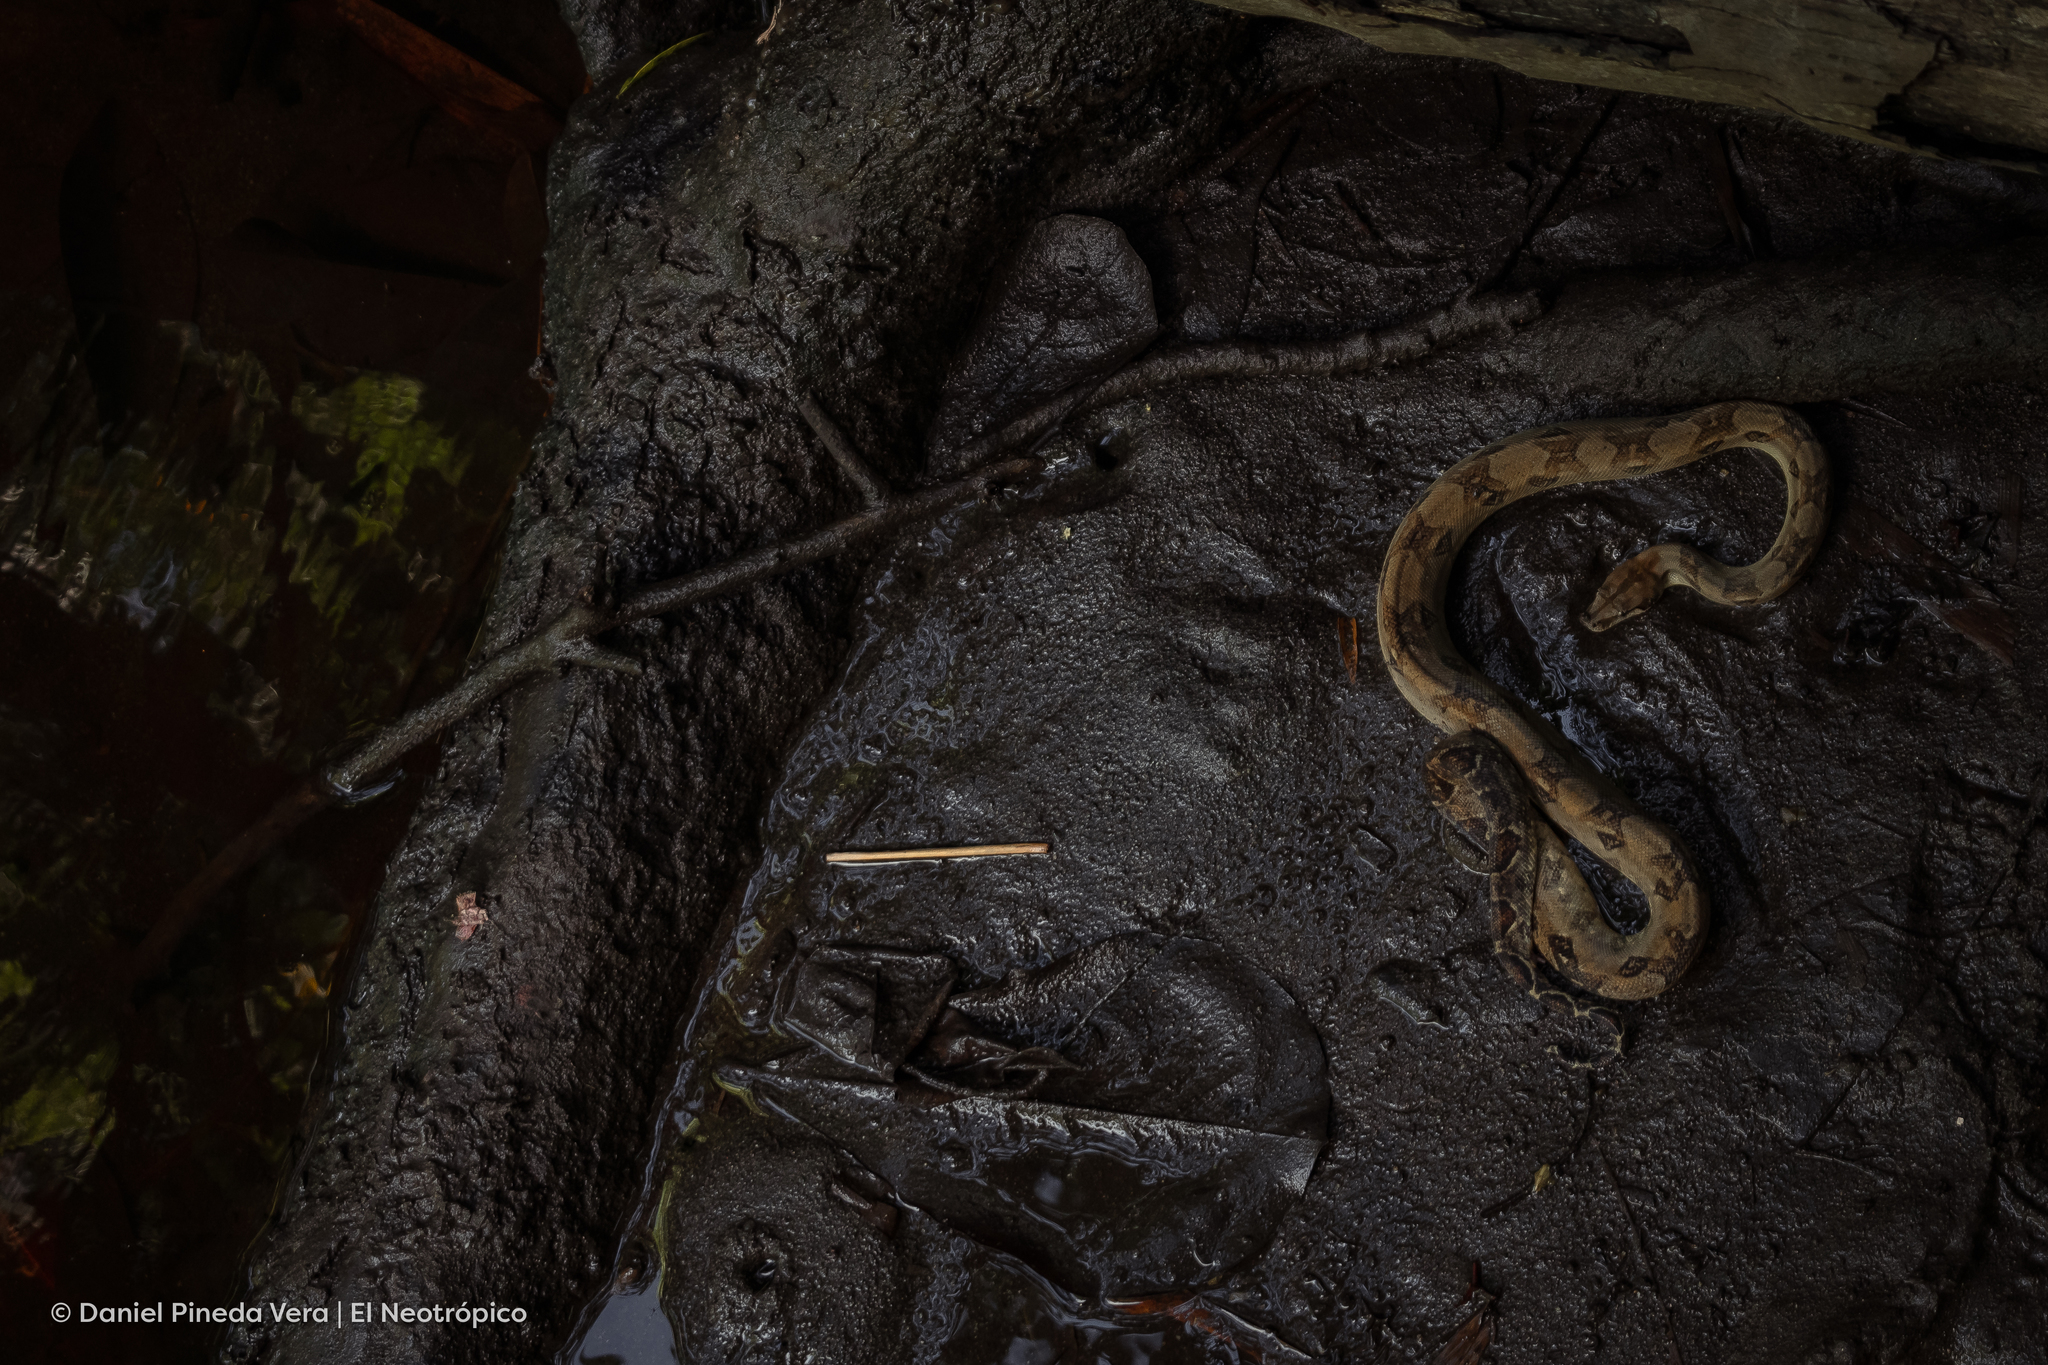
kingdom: Animalia
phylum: Chordata
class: Squamata
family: Boidae
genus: Boa
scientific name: Boa imperator
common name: Central american boa
